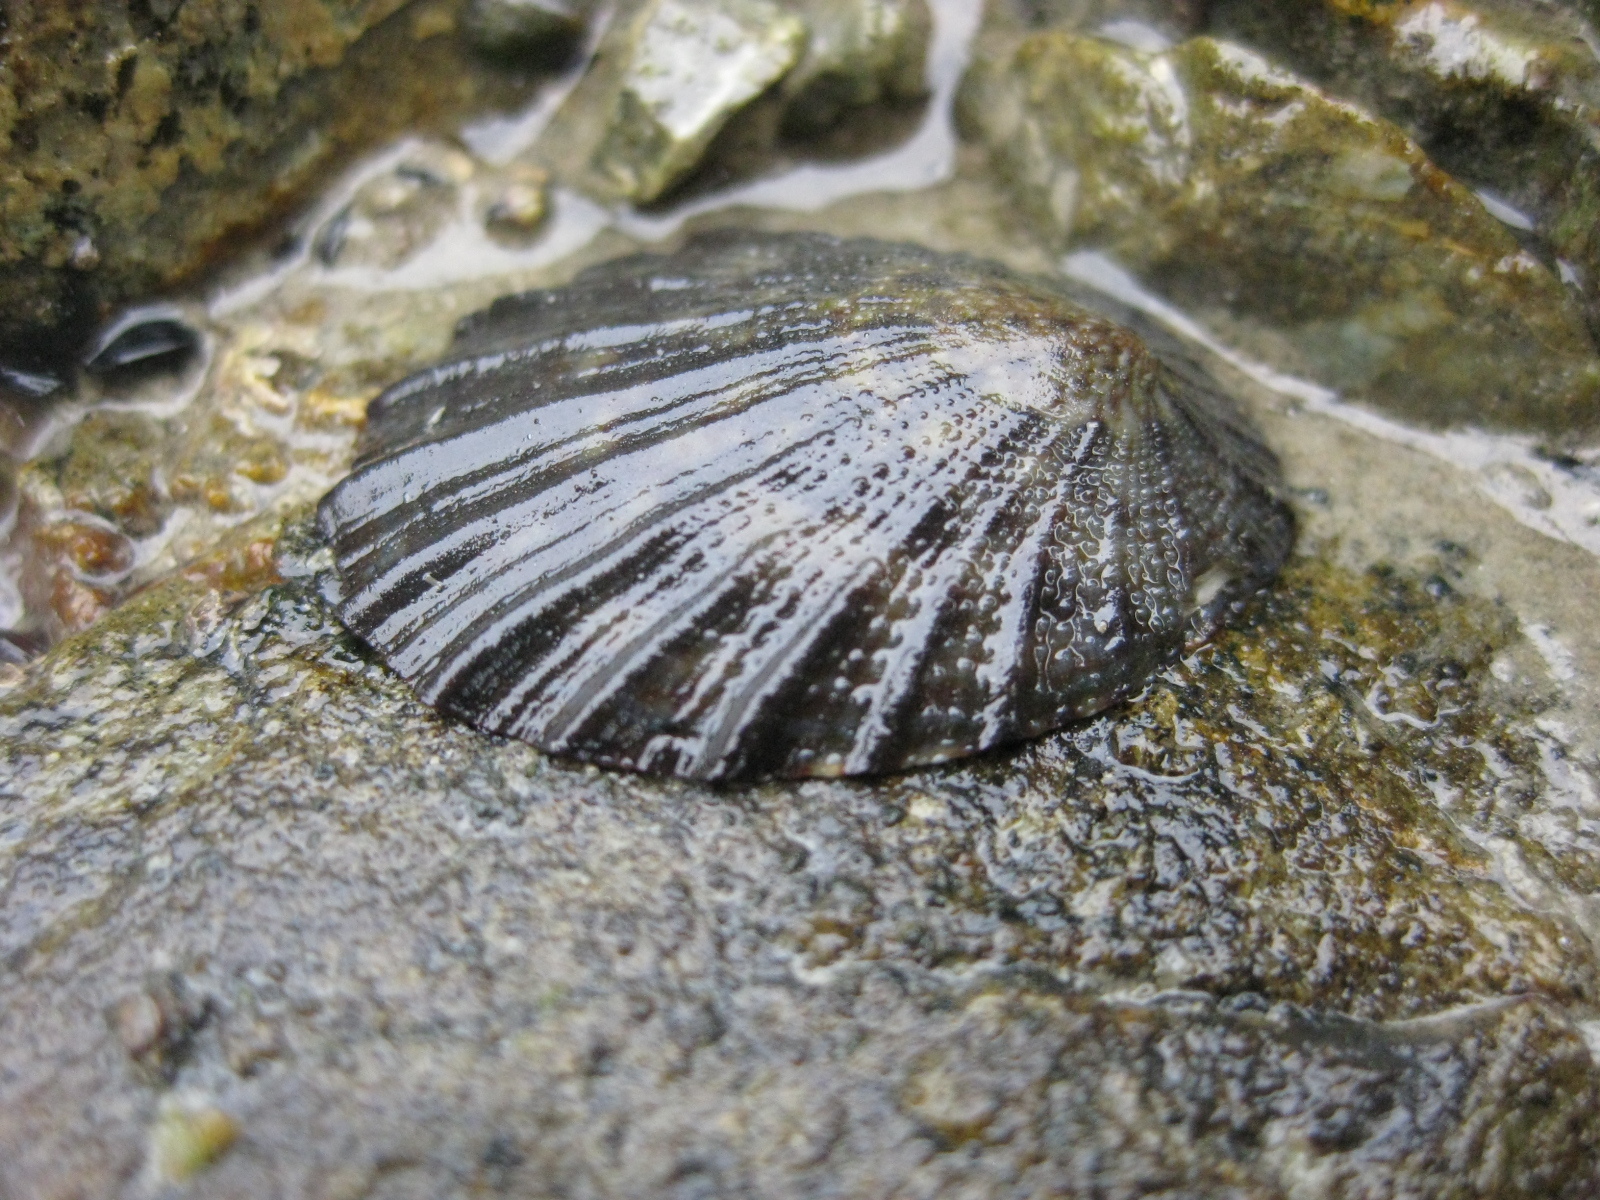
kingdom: Animalia
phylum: Mollusca
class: Gastropoda
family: Nacellidae
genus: Cellana
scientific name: Cellana radians
